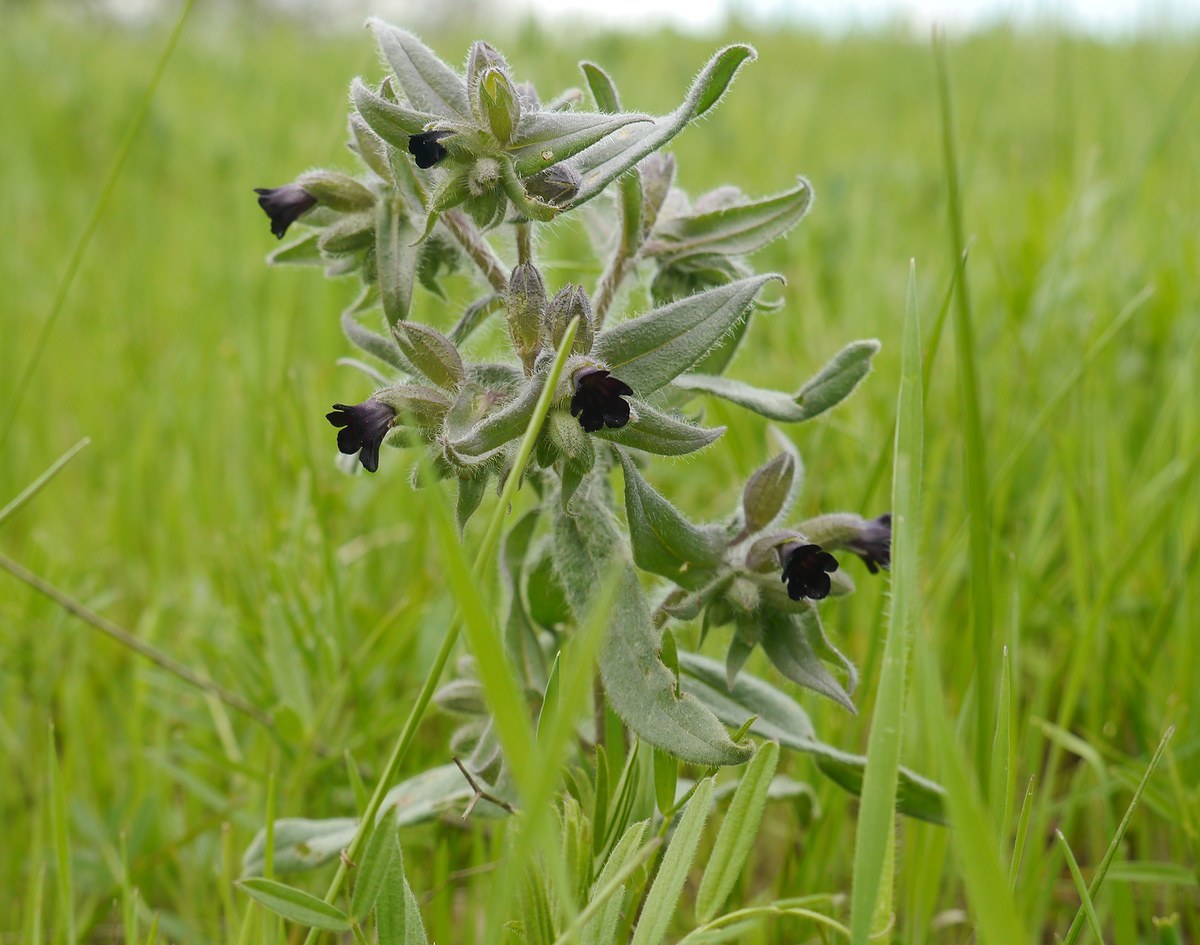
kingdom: Plantae
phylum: Tracheophyta
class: Magnoliopsida
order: Boraginales
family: Boraginaceae
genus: Nonea
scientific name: Nonea pulla
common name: Brown nonea
